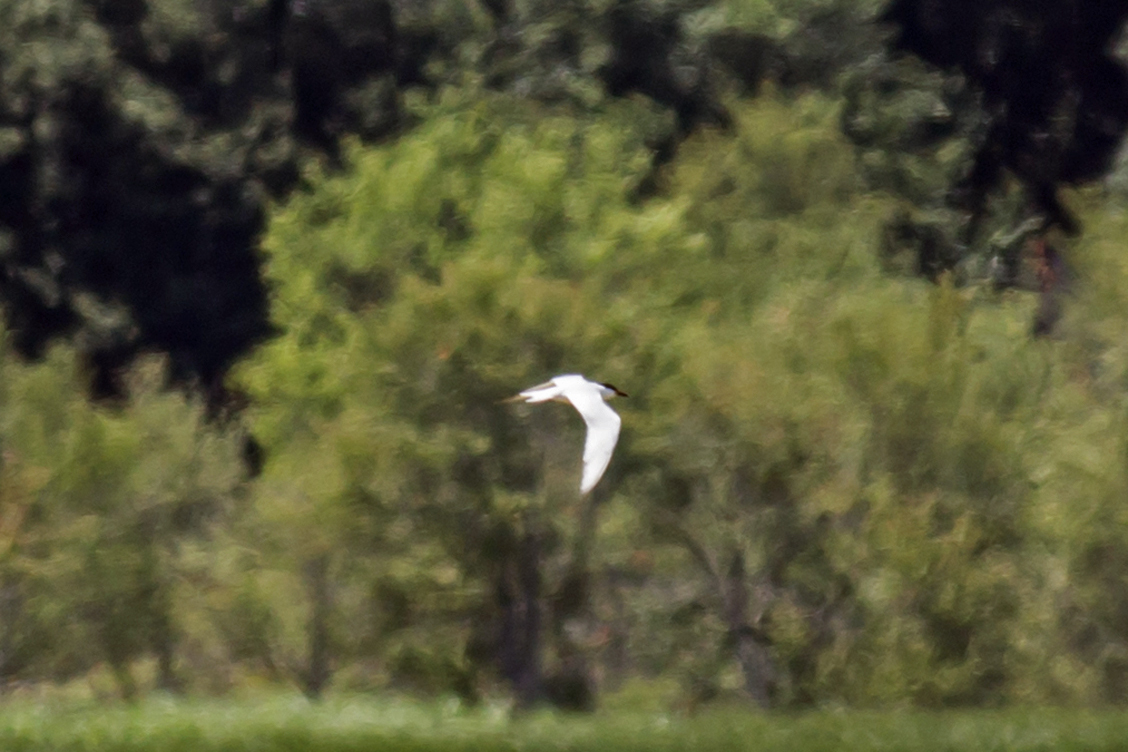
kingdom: Animalia
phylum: Chordata
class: Aves
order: Charadriiformes
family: Laridae
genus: Gelochelidon
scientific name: Gelochelidon nilotica
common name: Gull-billed tern
